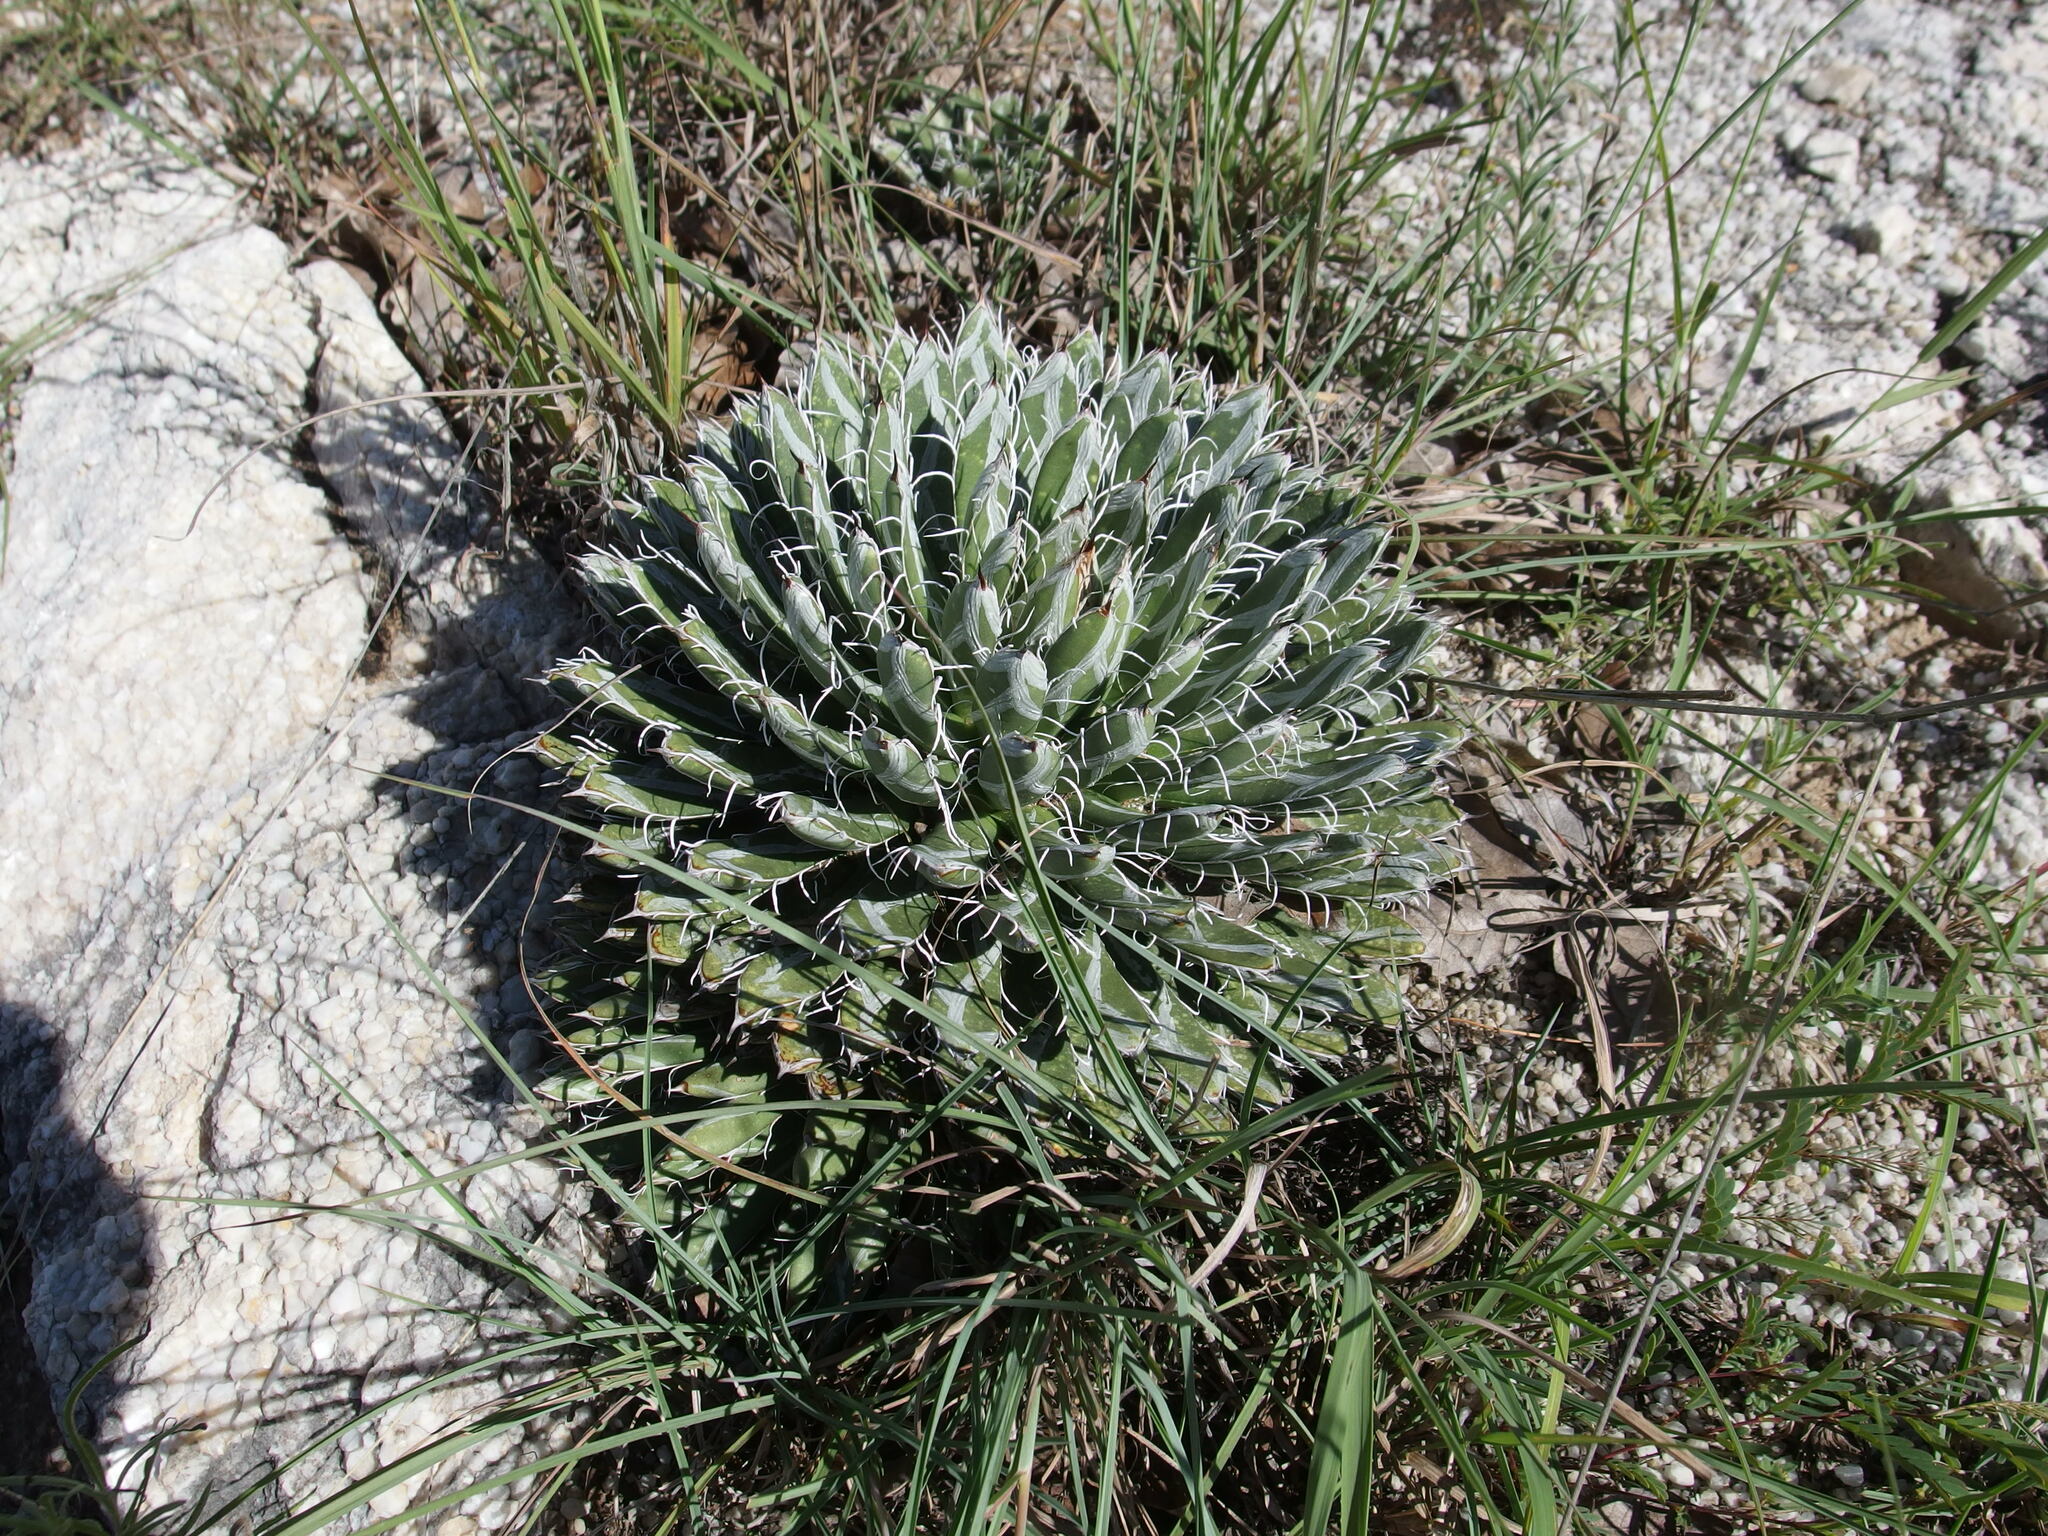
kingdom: Plantae
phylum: Tracheophyta
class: Liliopsida
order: Asparagales
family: Asparagaceae
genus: Agave
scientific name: Agave parviflora
